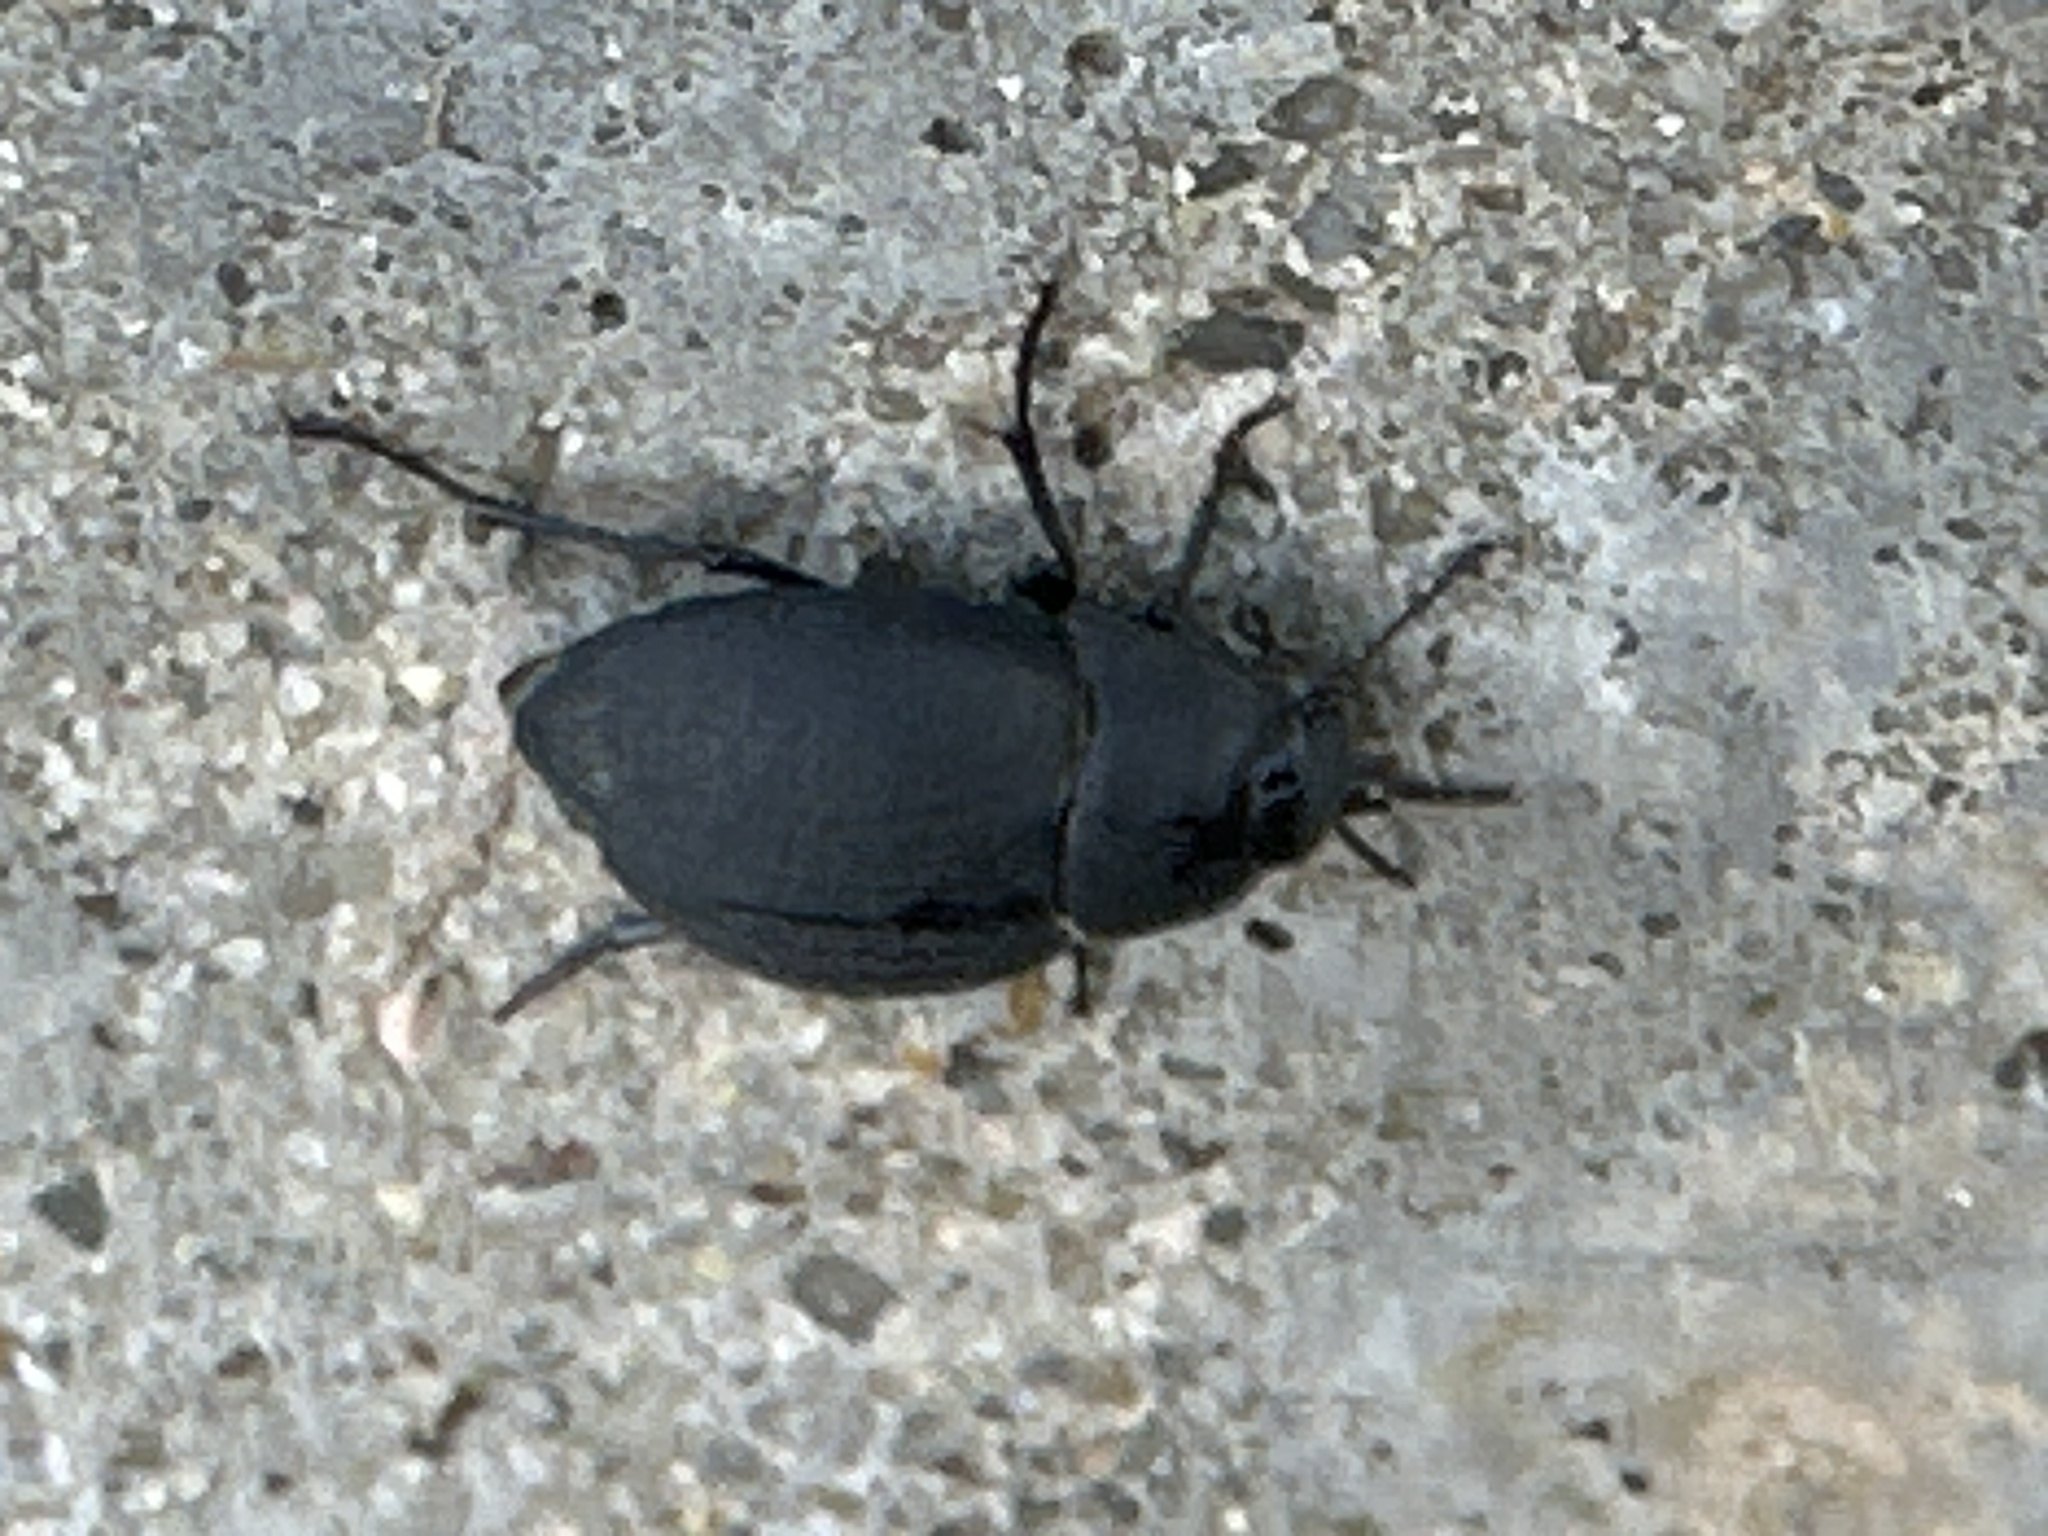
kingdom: Animalia
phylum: Arthropoda
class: Insecta
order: Coleoptera
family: Tenebrionidae
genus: Eusattus
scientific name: Eusattus reticulatus
